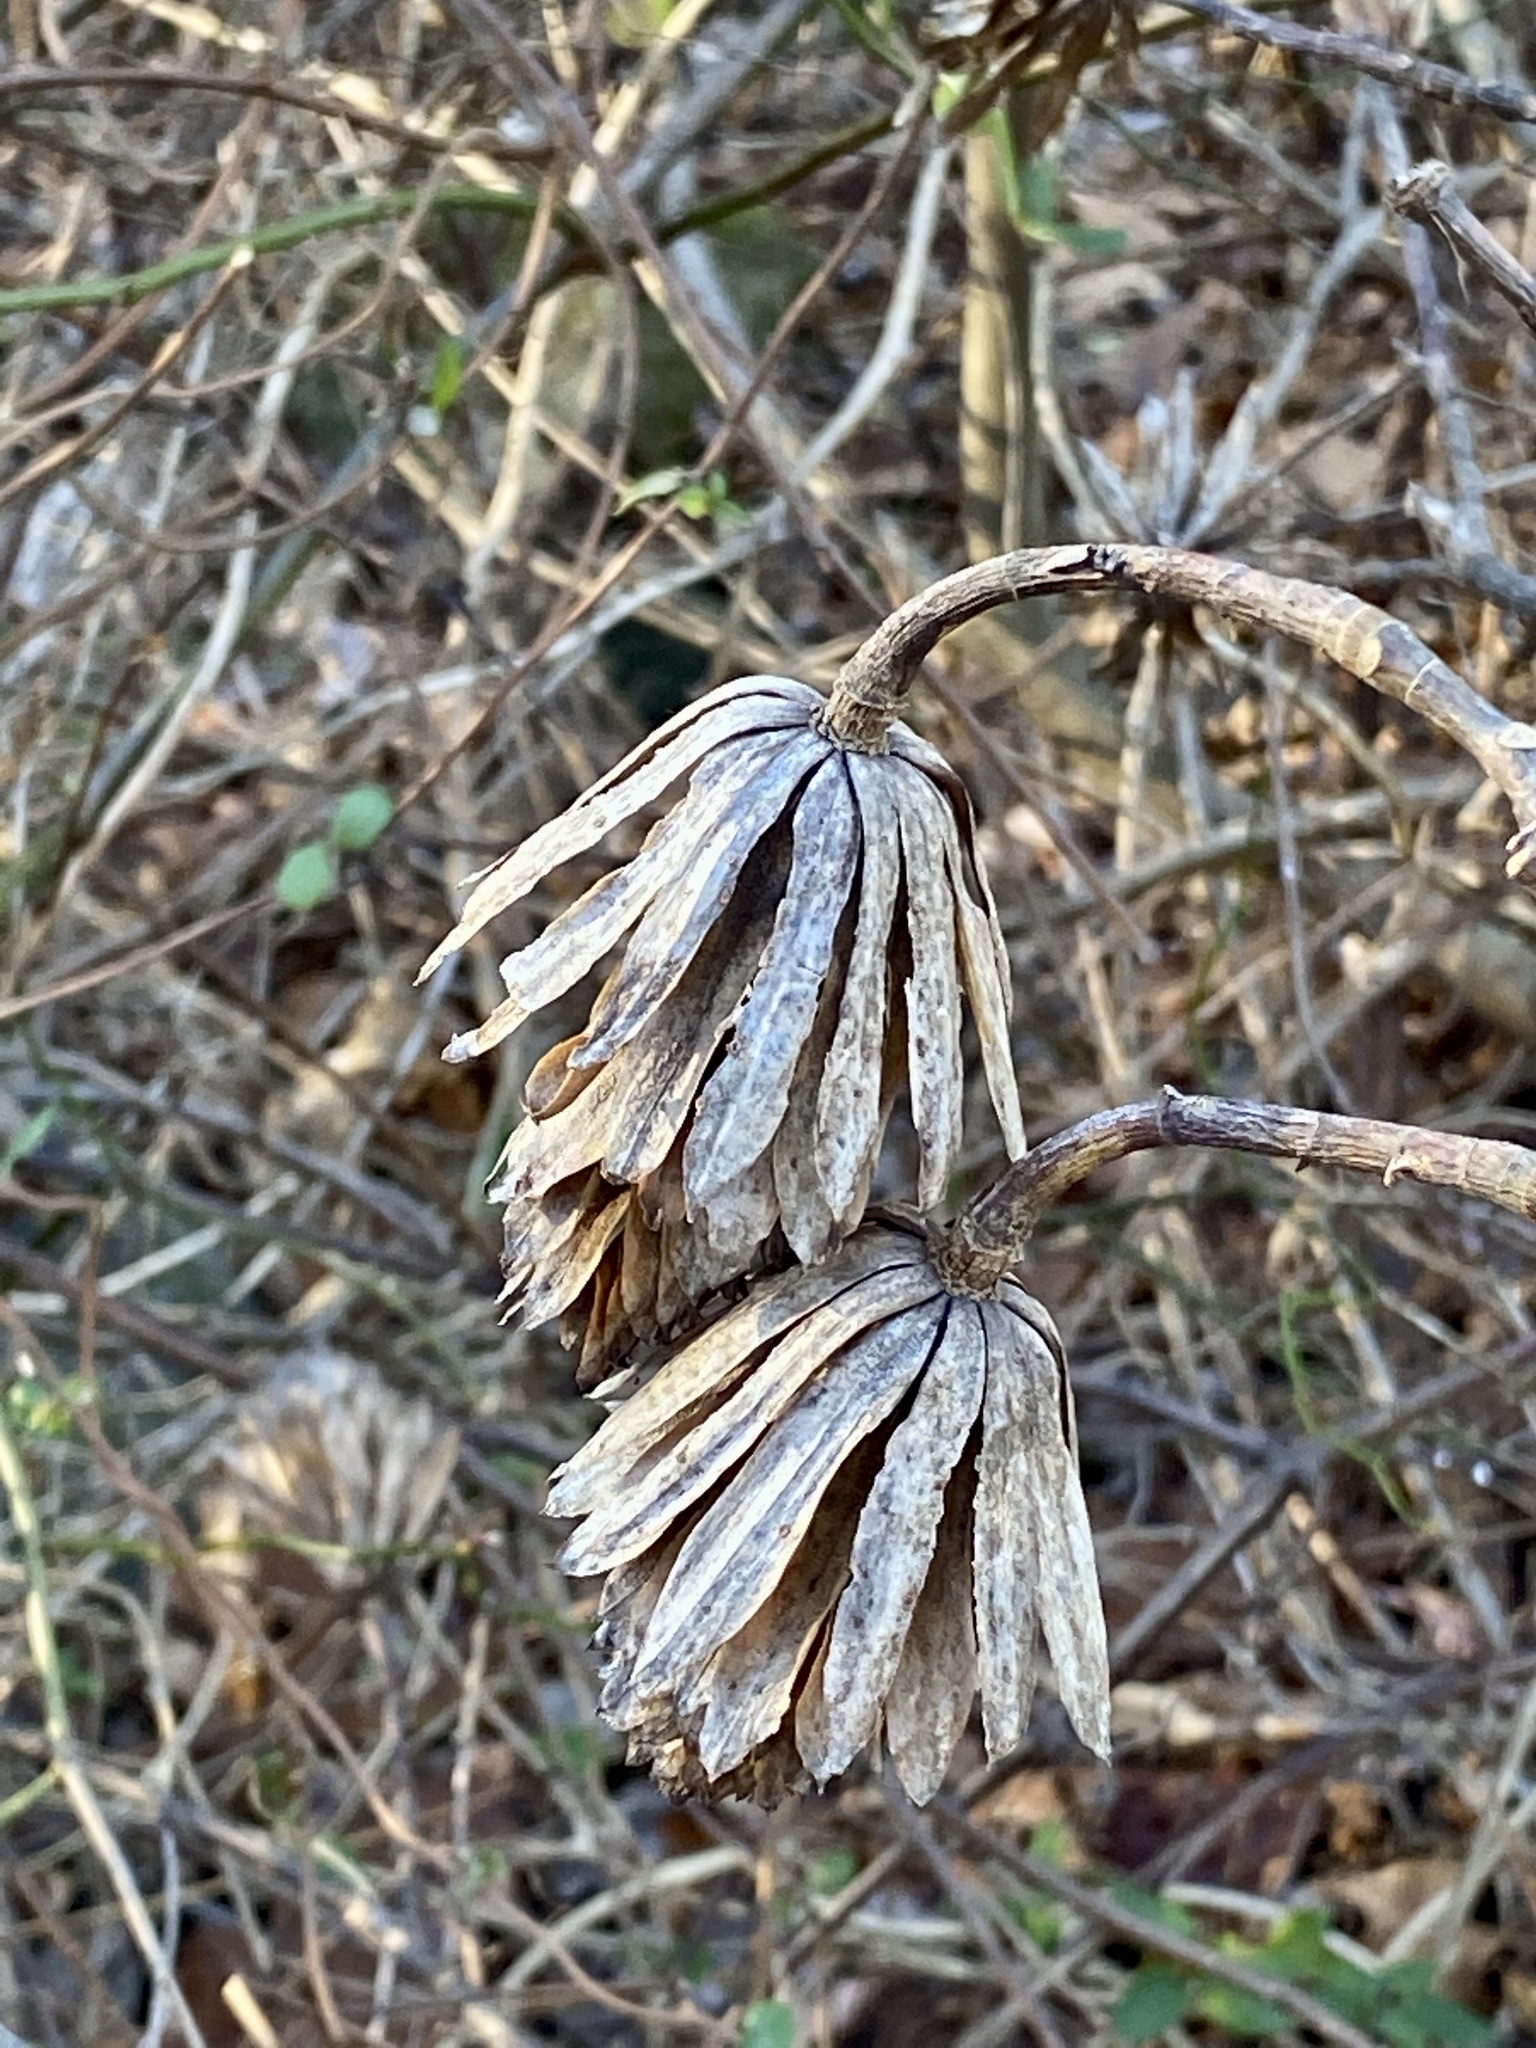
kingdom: Plantae
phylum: Tracheophyta
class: Magnoliopsida
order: Magnoliales
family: Magnoliaceae
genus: Liriodendron
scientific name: Liriodendron tulipifera
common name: Tulip tree
